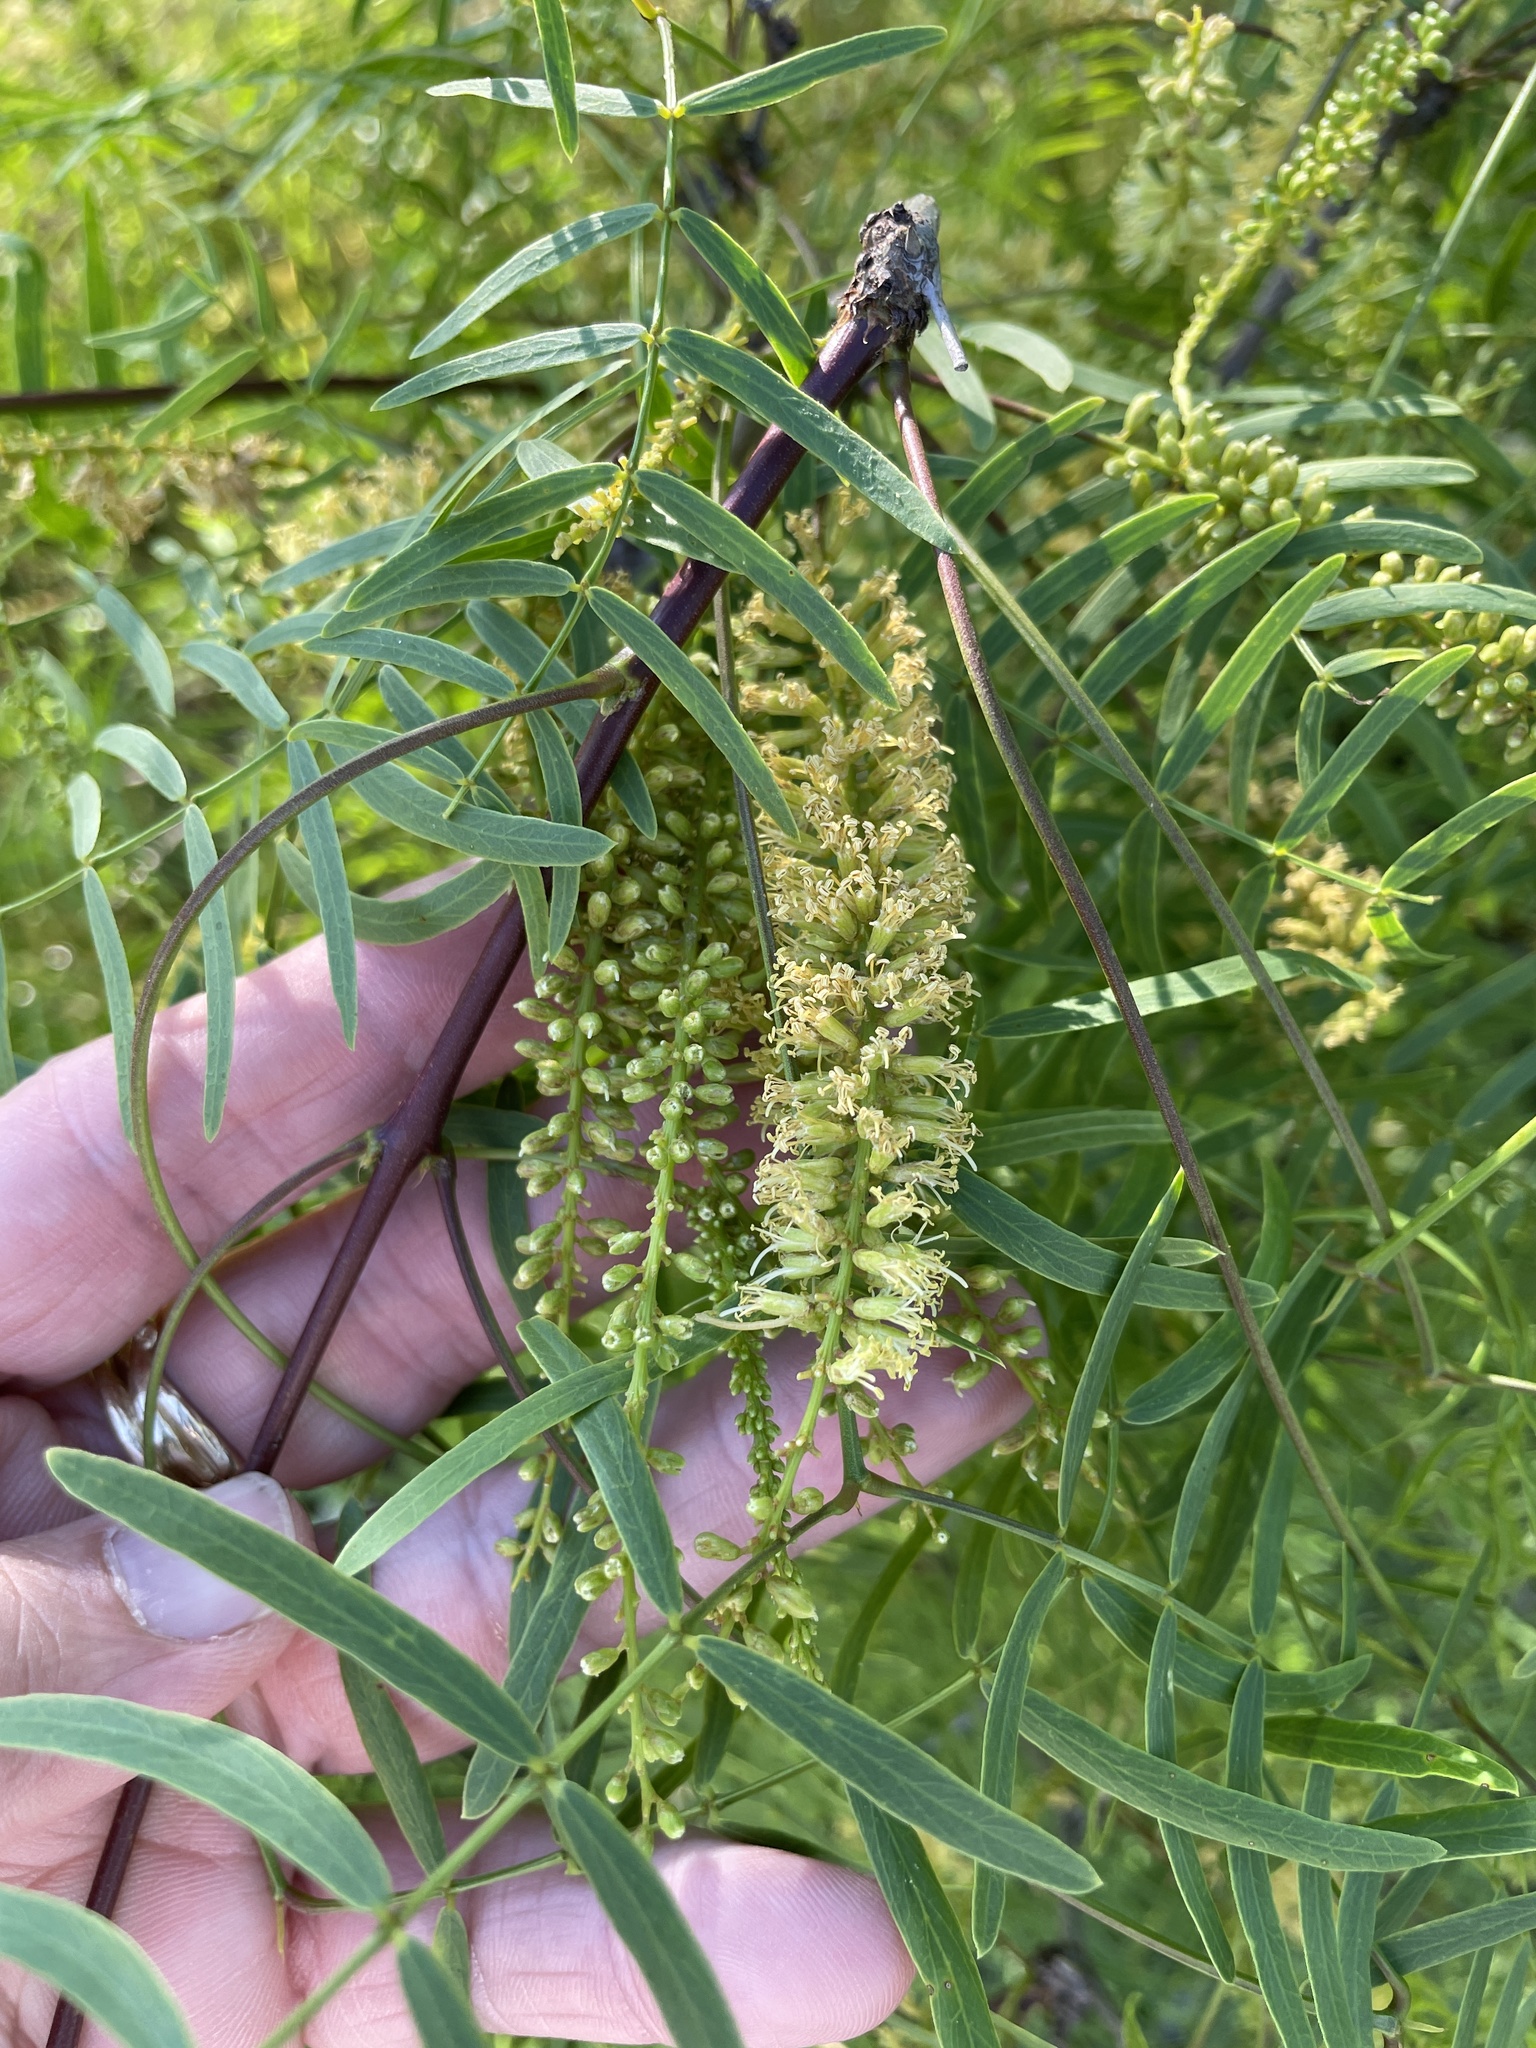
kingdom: Plantae
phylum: Tracheophyta
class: Magnoliopsida
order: Fabales
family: Fabaceae
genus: Prosopis
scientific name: Prosopis glandulosa
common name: Honey mesquite
